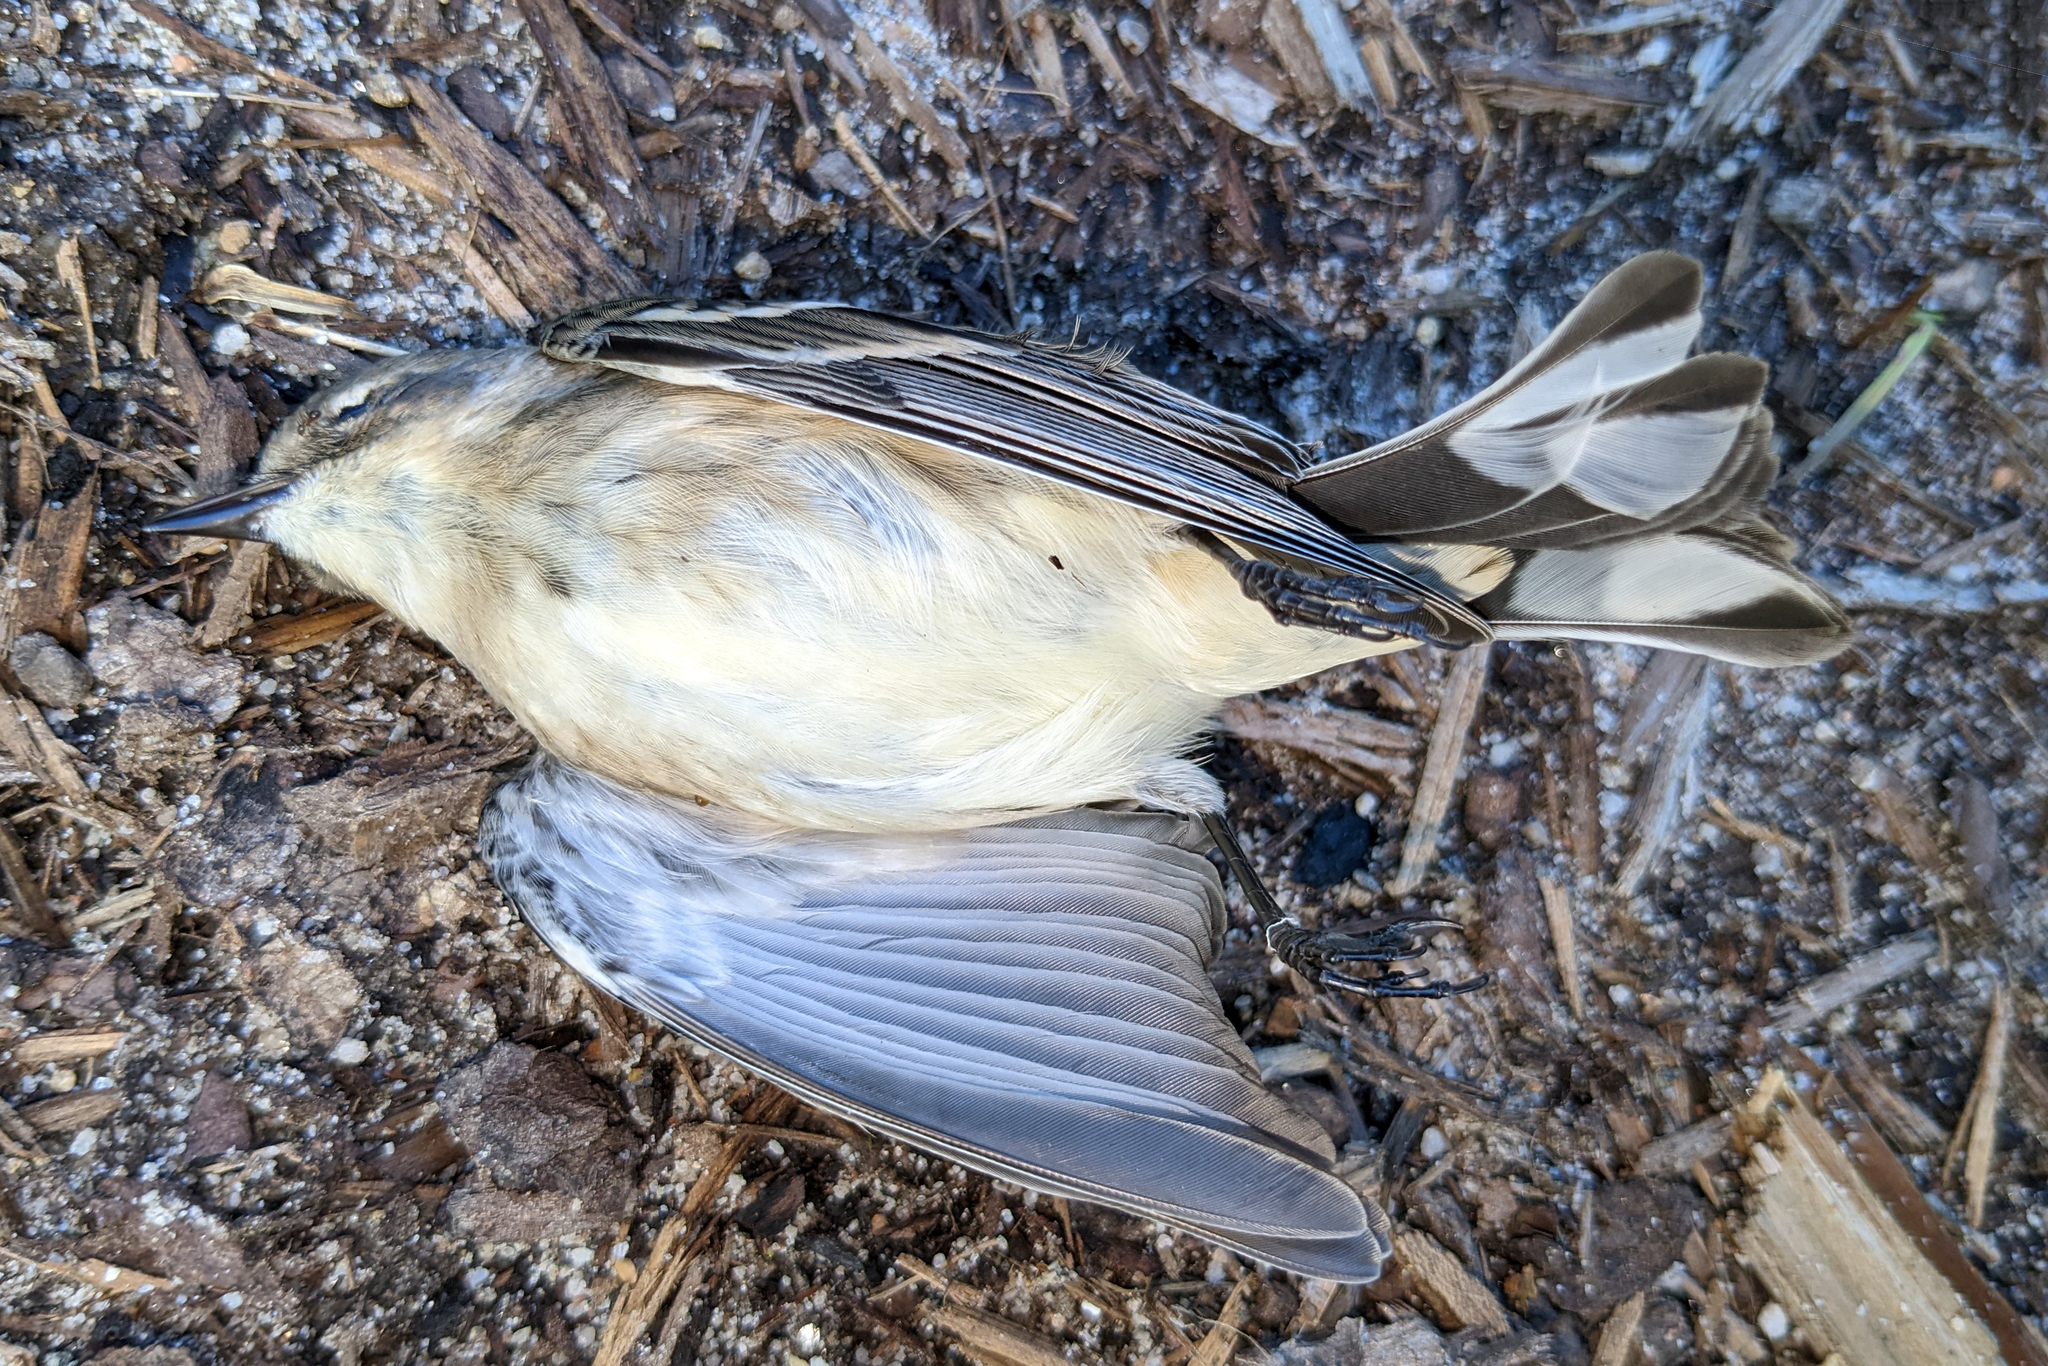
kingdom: Animalia
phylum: Chordata
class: Aves
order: Passeriformes
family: Parulidae
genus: Setophaga
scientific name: Setophaga coronata
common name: Myrtle warbler
